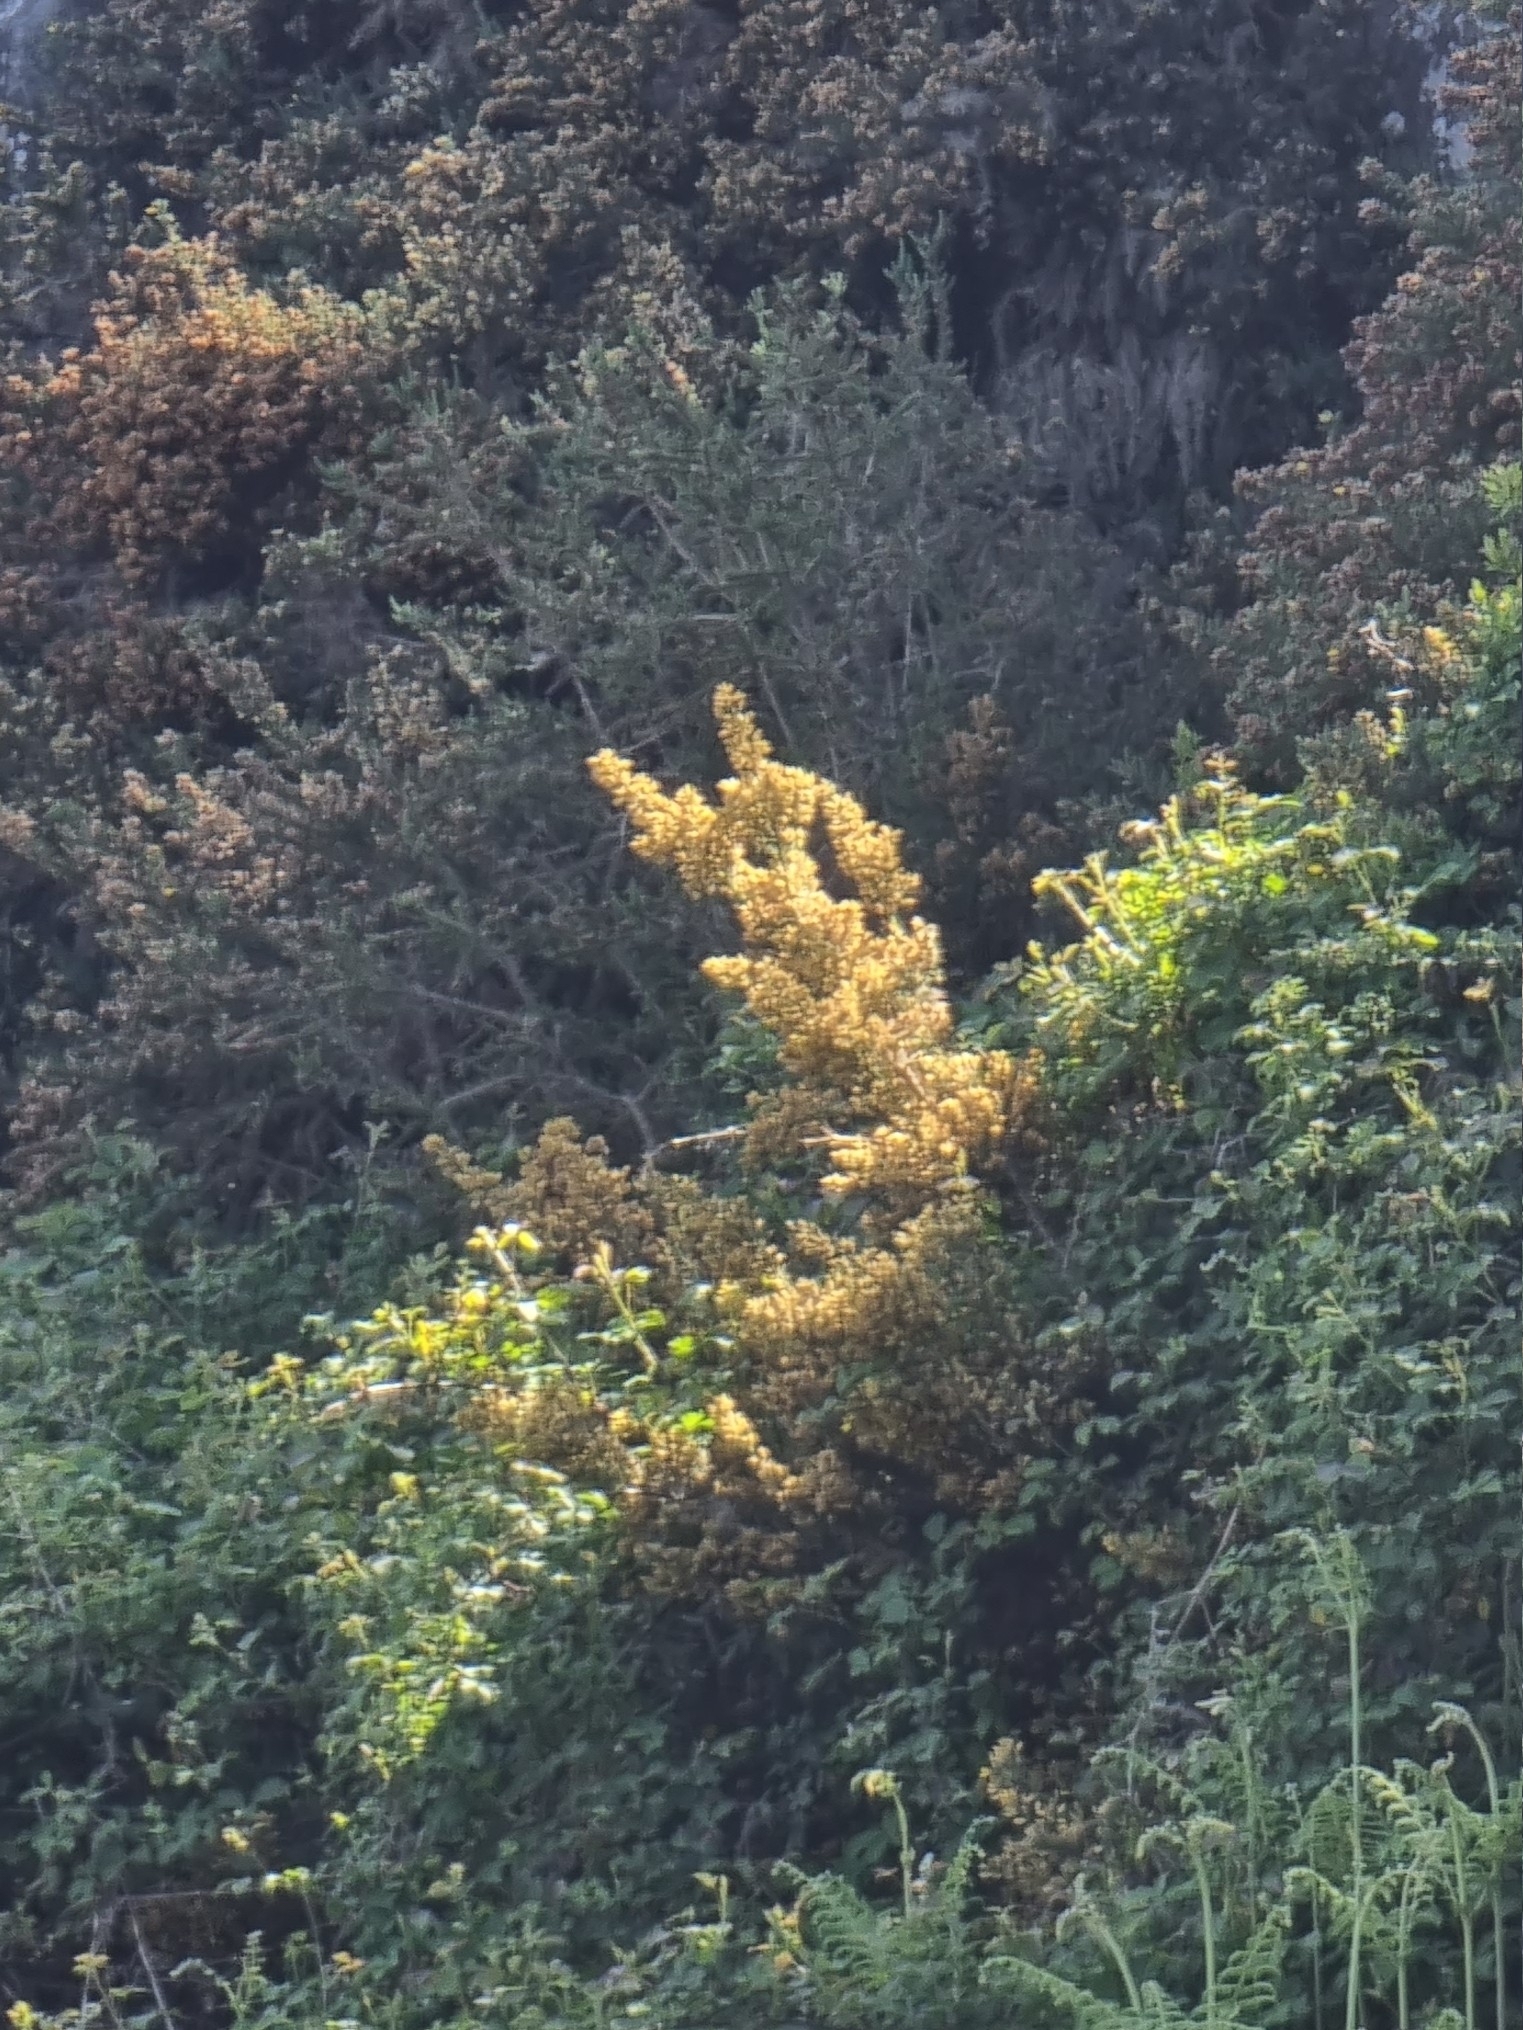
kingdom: Plantae
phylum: Tracheophyta
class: Magnoliopsida
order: Fabales
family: Fabaceae
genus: Ulex
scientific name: Ulex europaeus
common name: Common gorse
